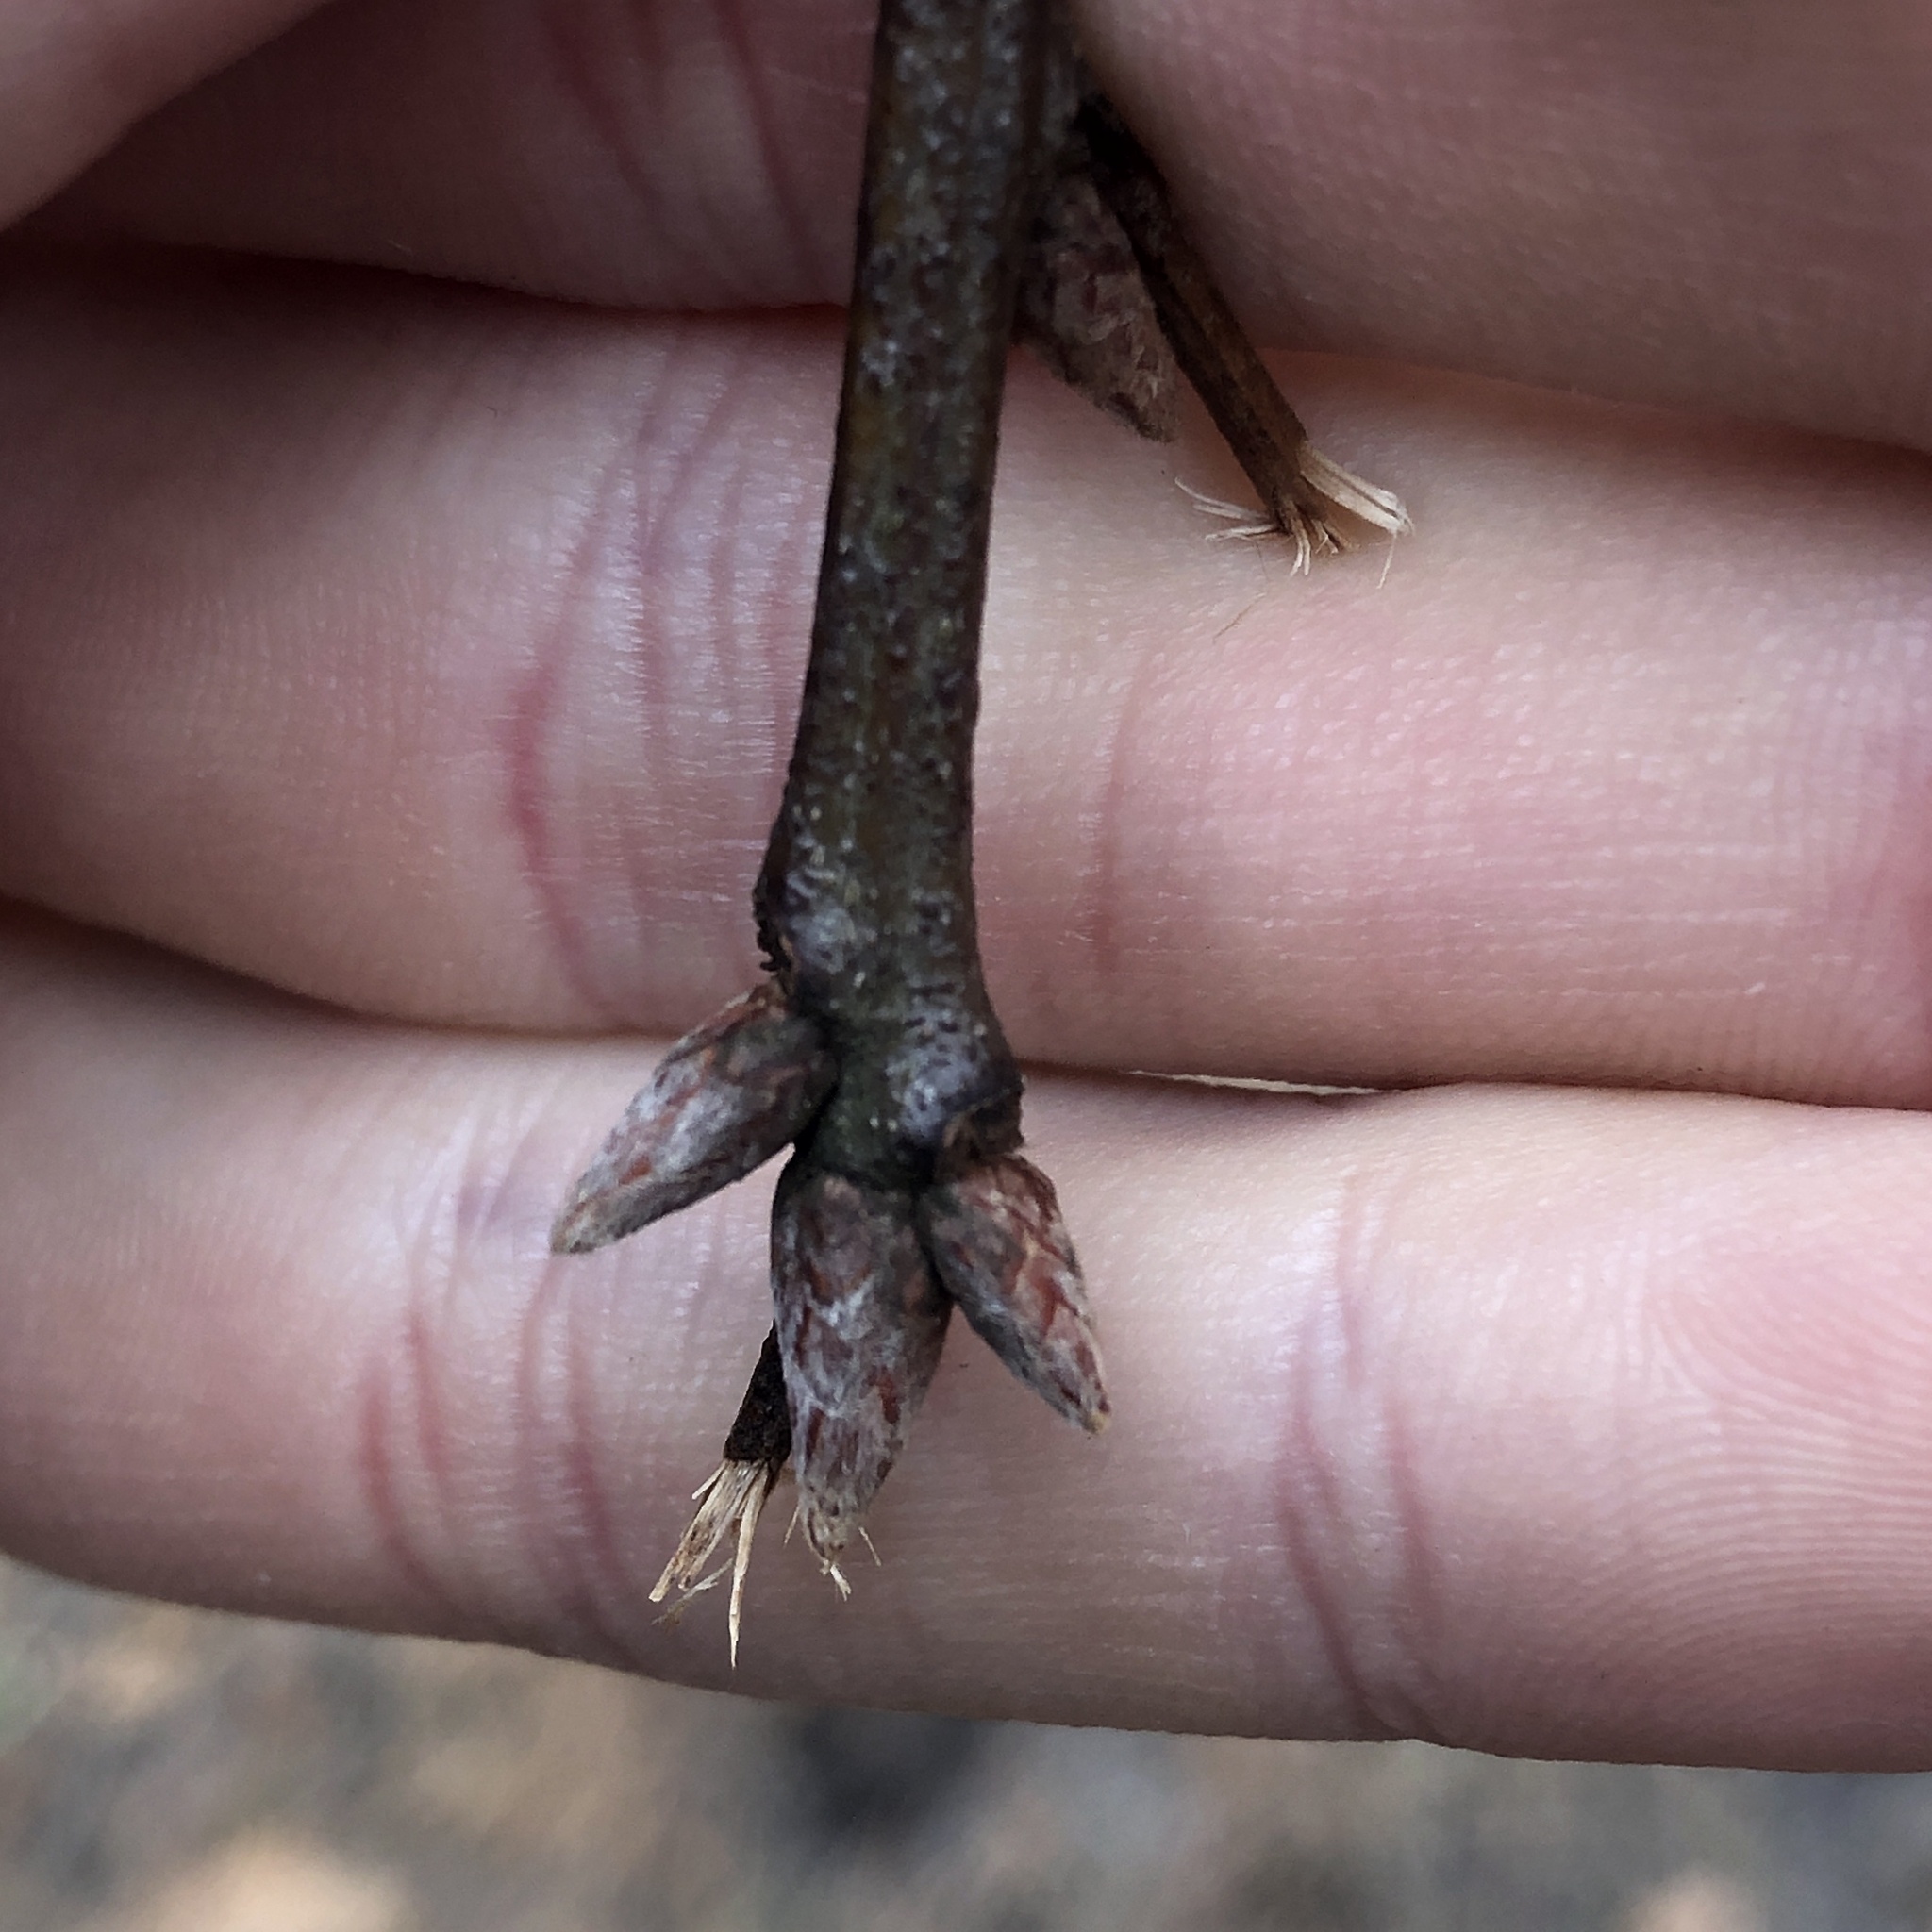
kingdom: Plantae
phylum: Tracheophyta
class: Magnoliopsida
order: Fagales
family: Fagaceae
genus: Quercus
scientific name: Quercus marilandica
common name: Blackjack oak
